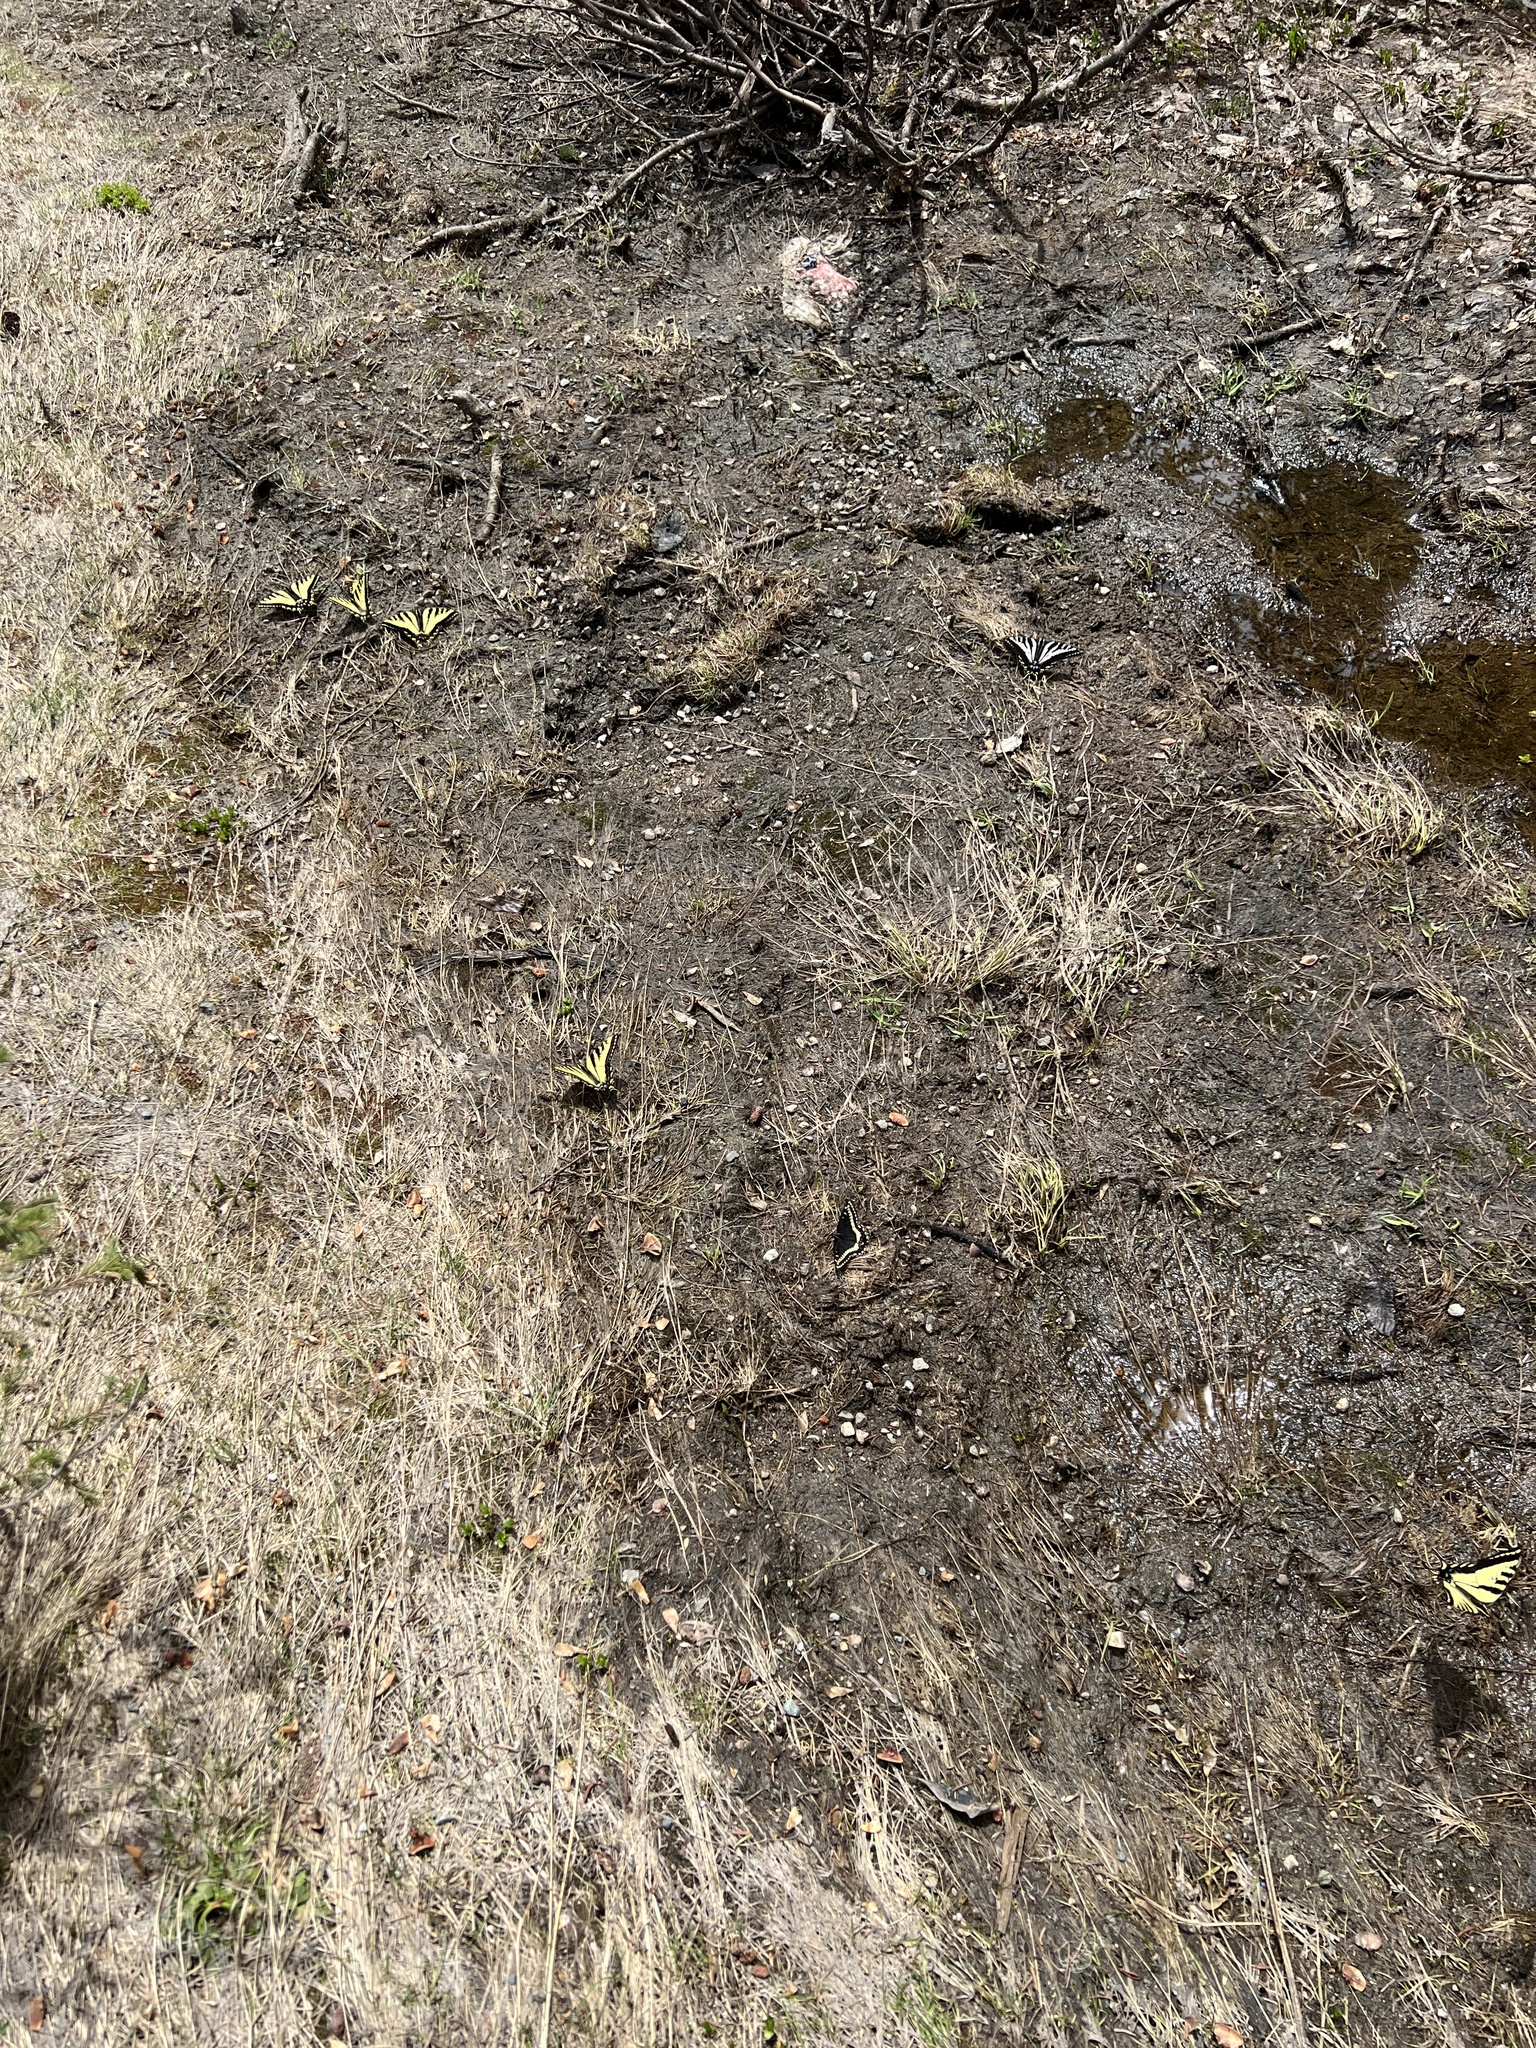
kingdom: Animalia
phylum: Arthropoda
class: Insecta
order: Lepidoptera
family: Papilionidae
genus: Papilio
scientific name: Papilio rutulus
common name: Western tiger swallowtail
